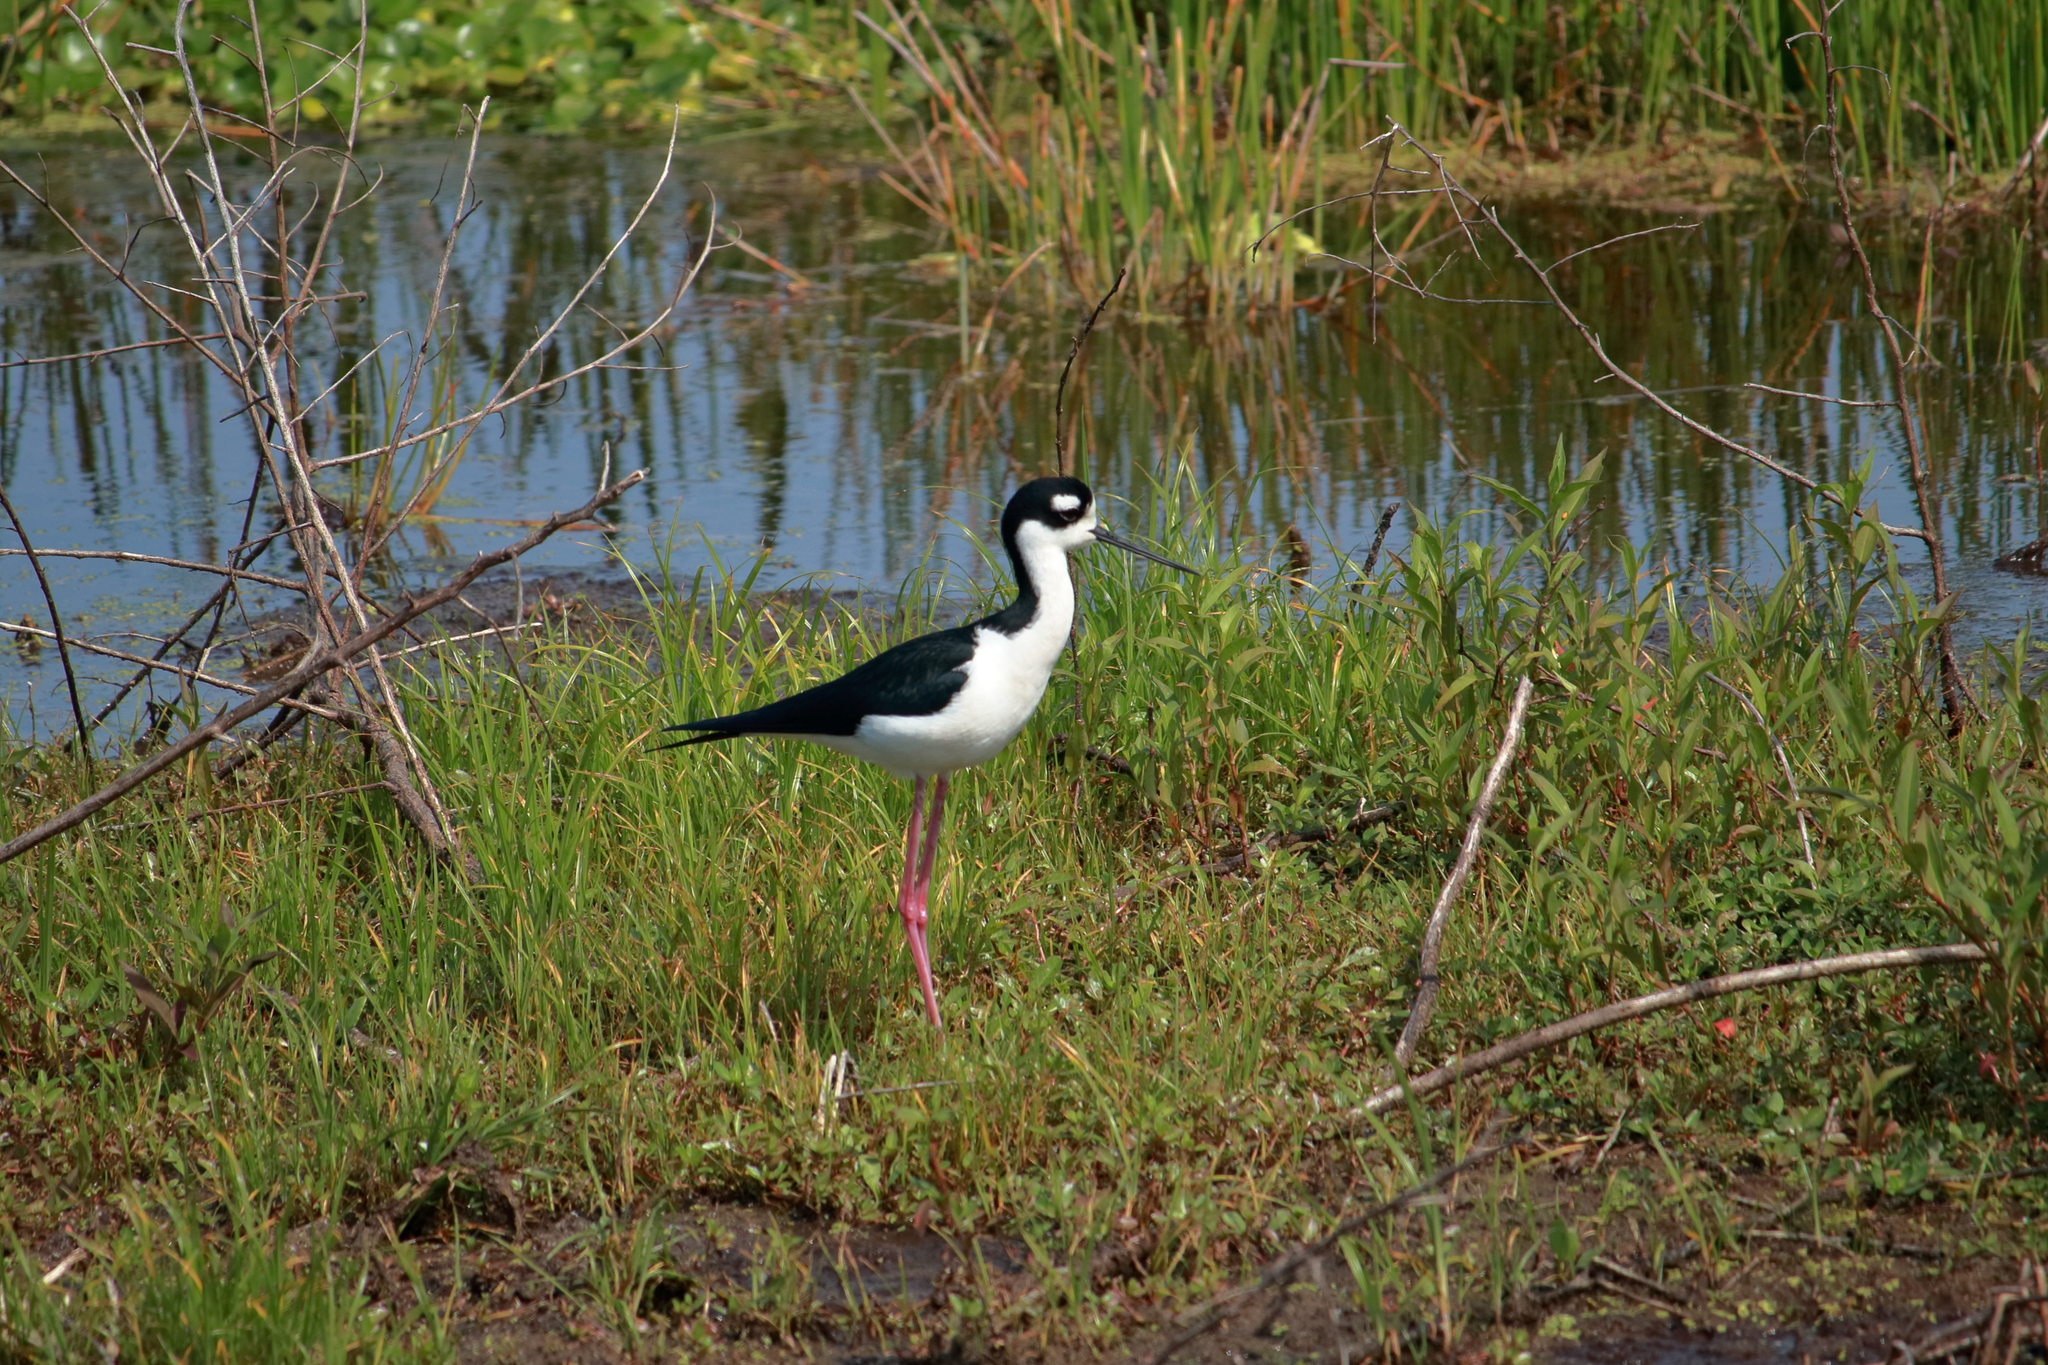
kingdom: Animalia
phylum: Chordata
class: Aves
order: Charadriiformes
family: Recurvirostridae
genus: Himantopus
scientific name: Himantopus mexicanus
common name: Black-necked stilt
